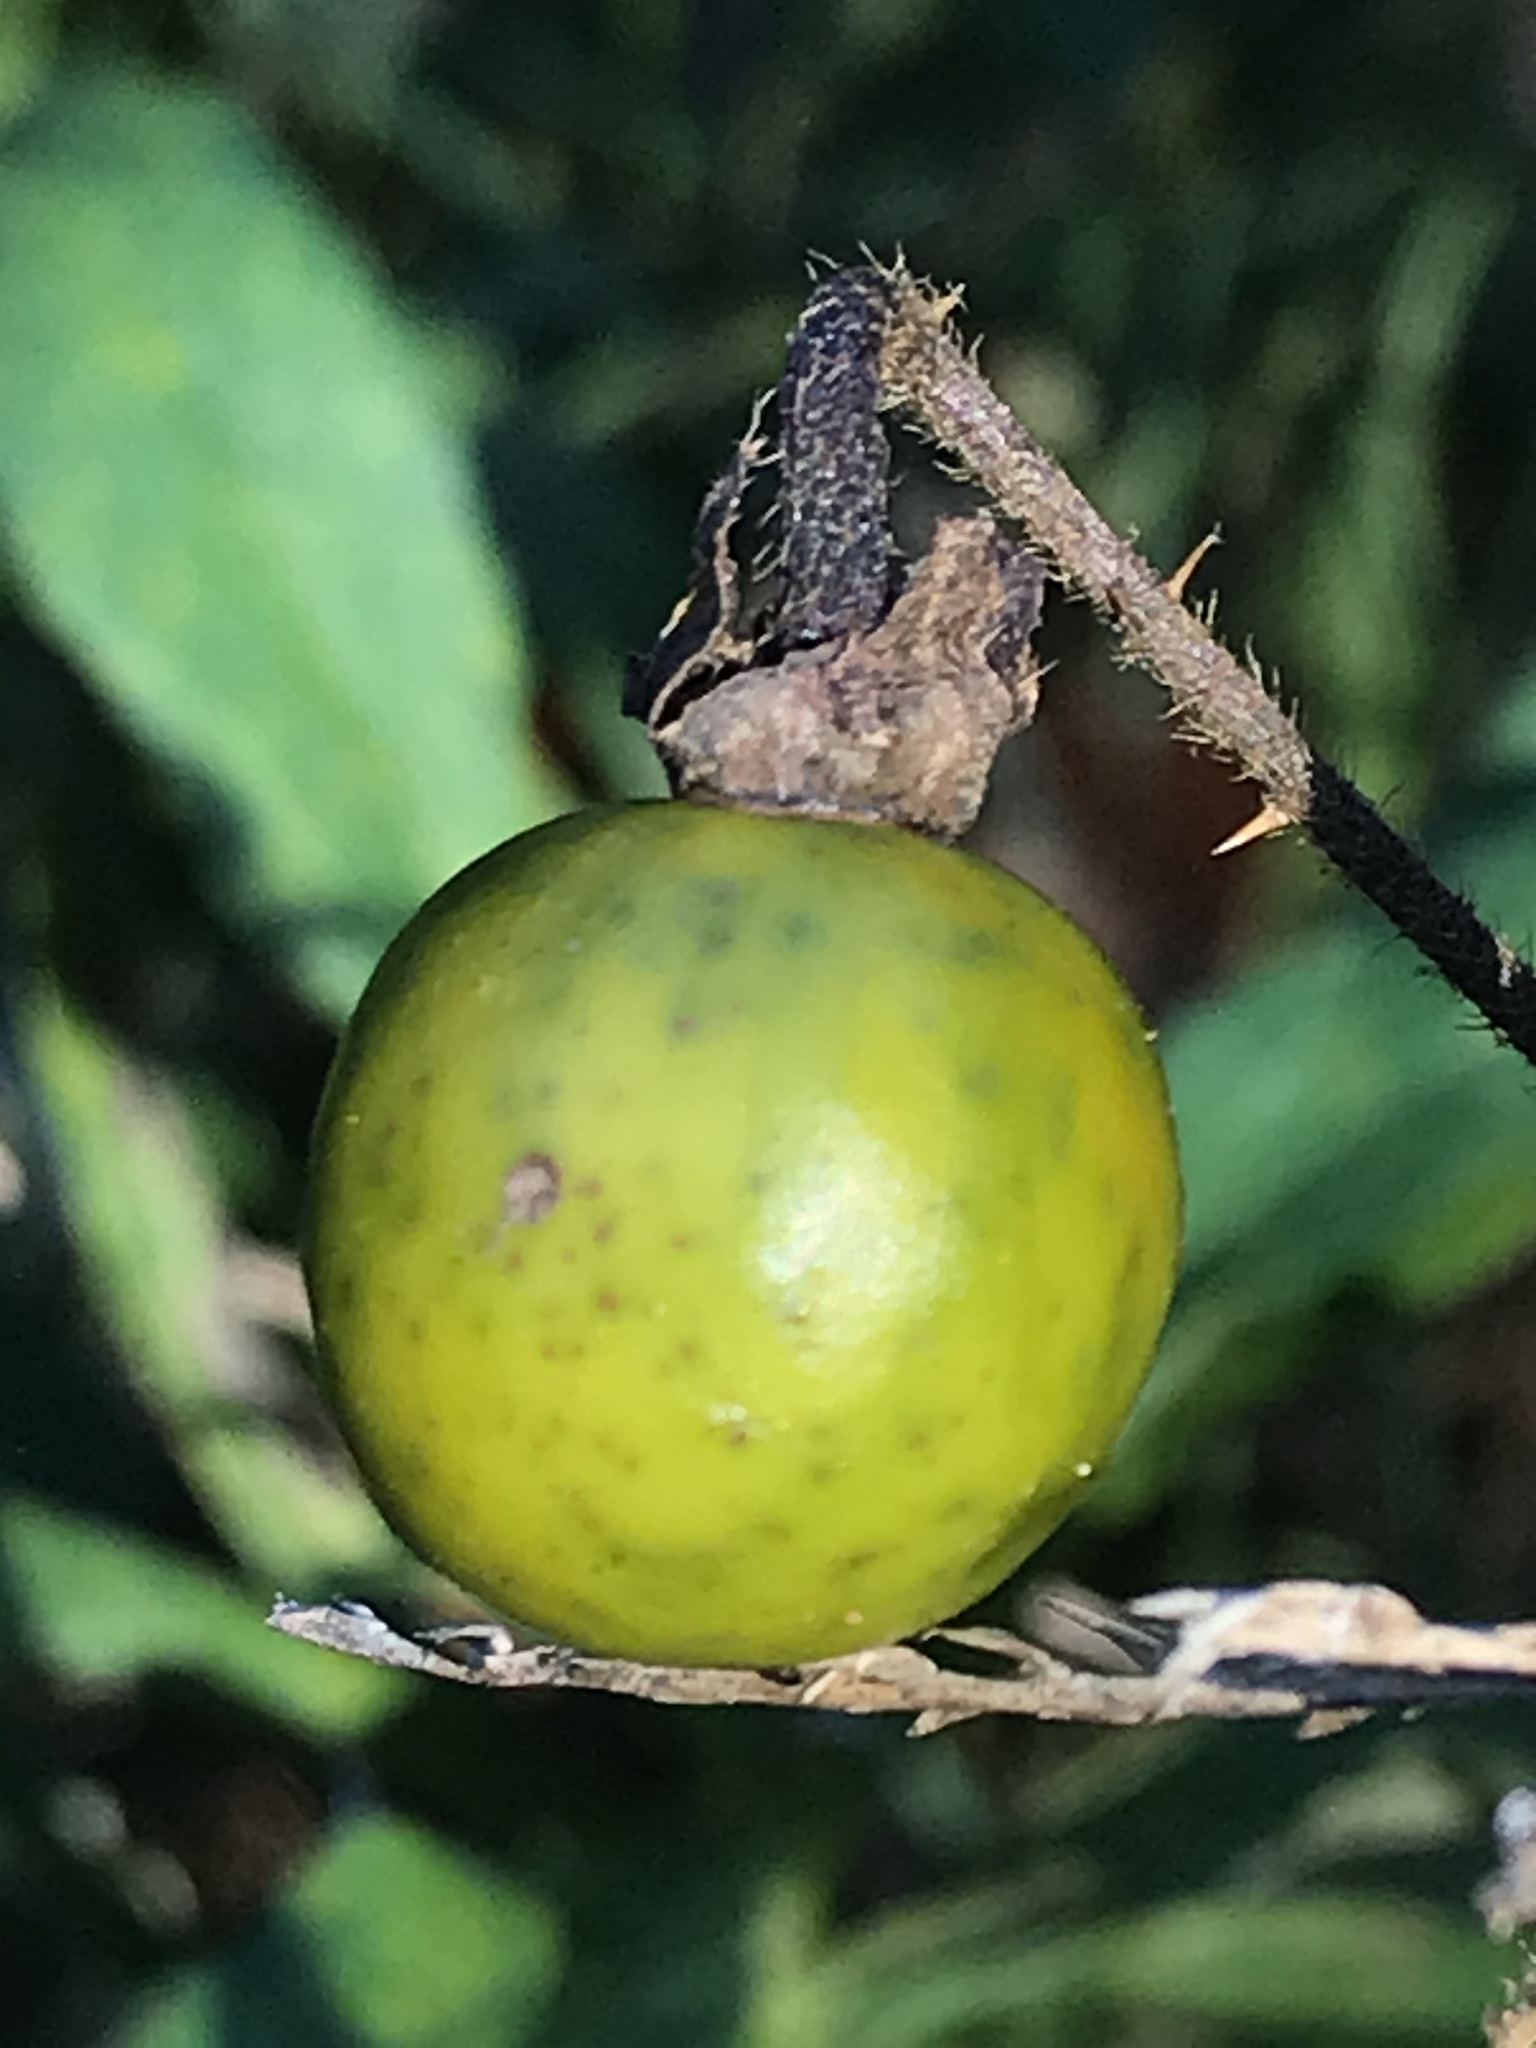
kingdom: Plantae
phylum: Tracheophyta
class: Magnoliopsida
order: Solanales
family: Solanaceae
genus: Solanum
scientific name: Solanum carolinense
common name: Horse-nettle
